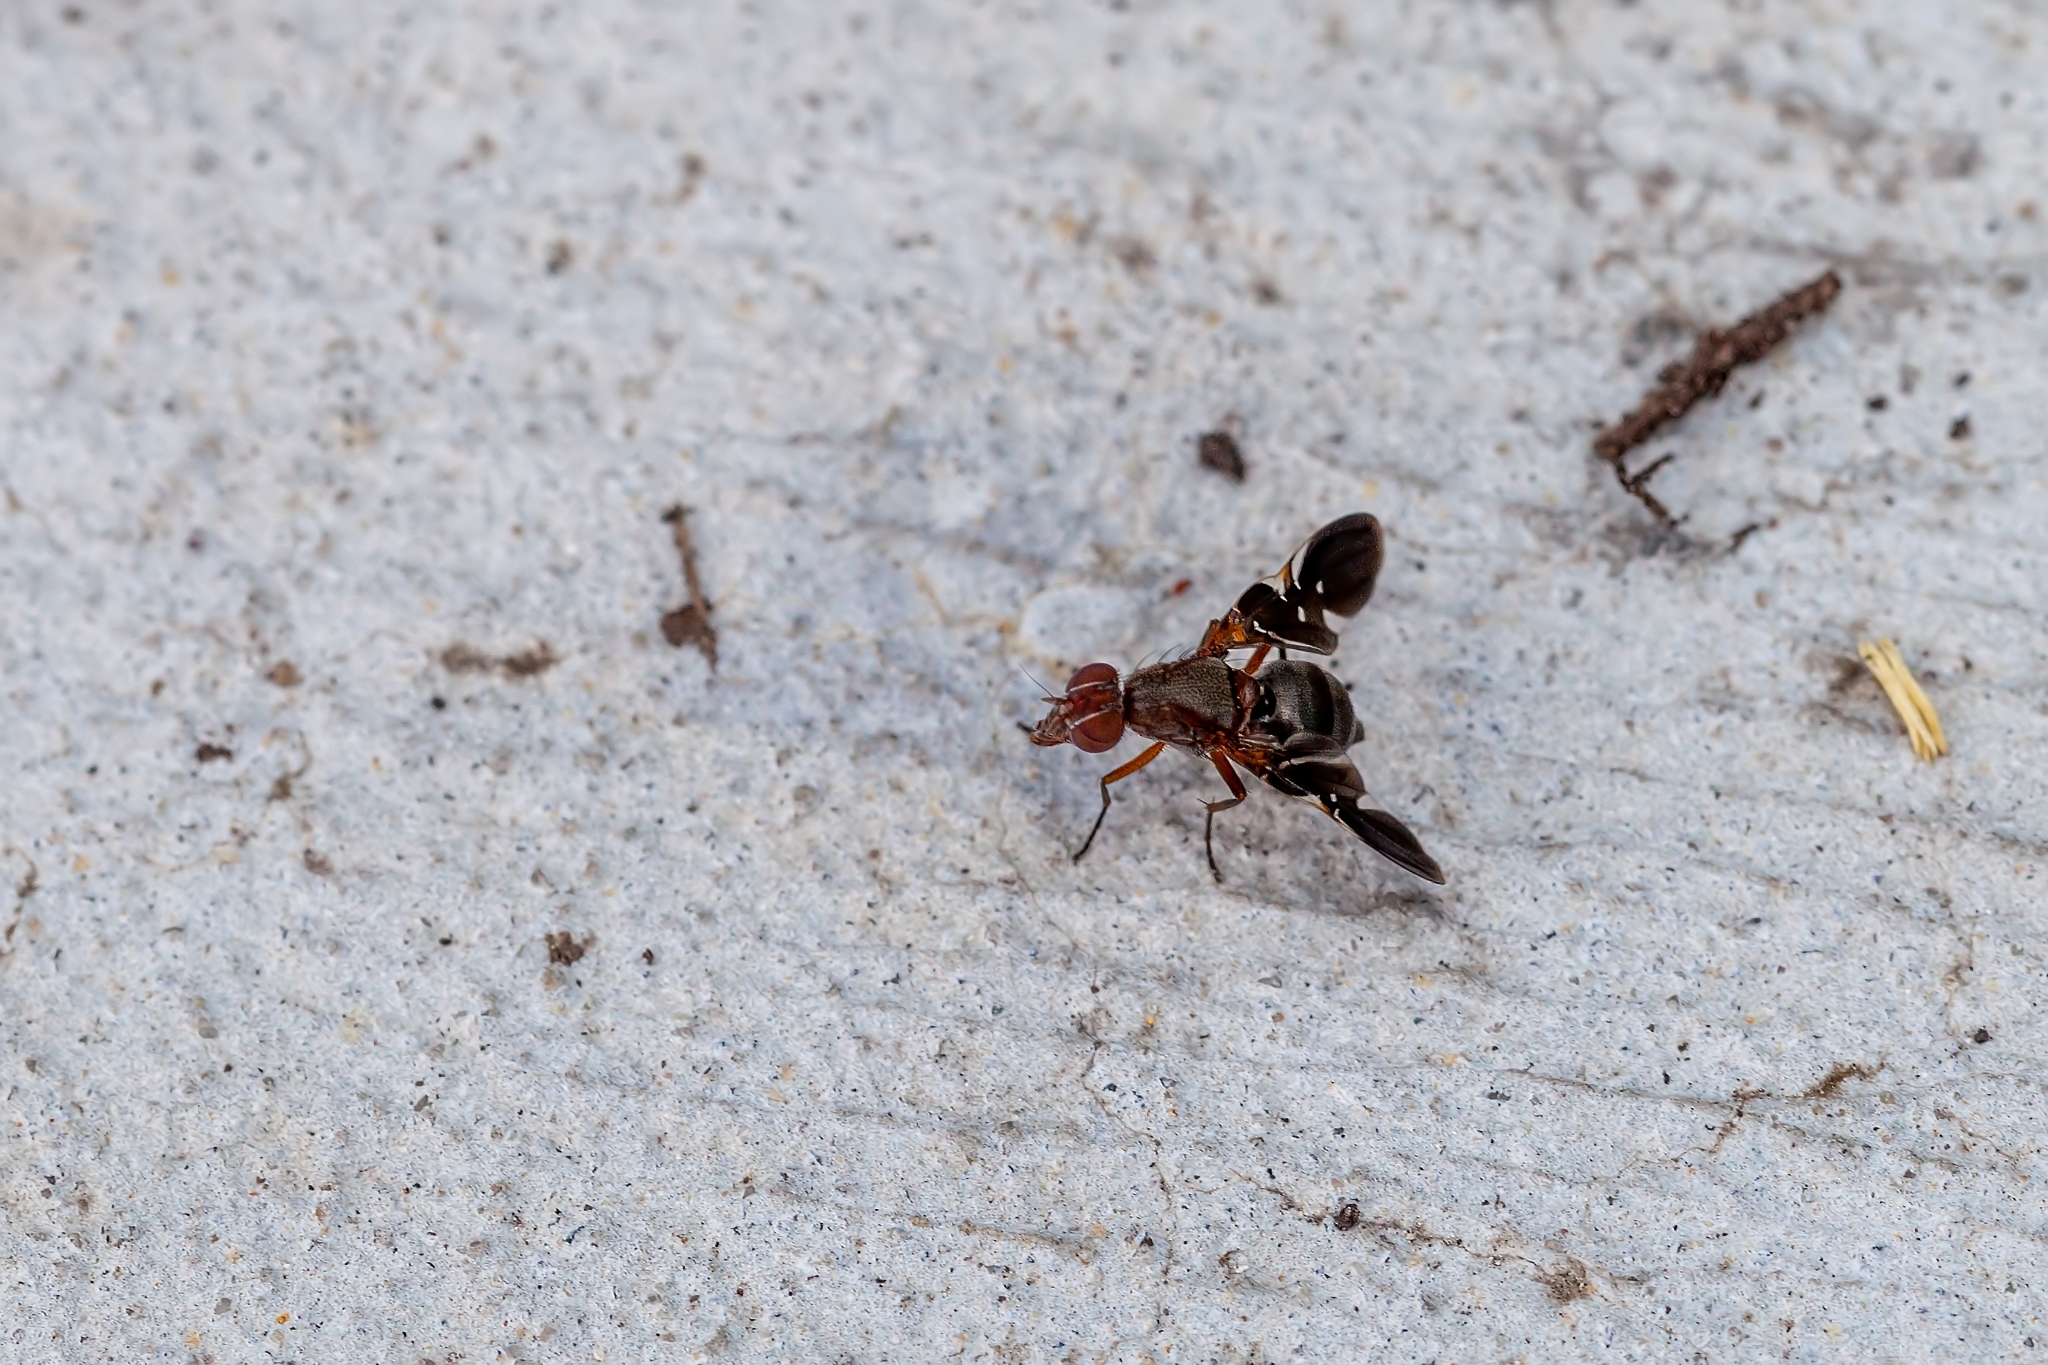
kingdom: Animalia
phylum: Arthropoda
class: Insecta
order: Diptera
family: Ulidiidae
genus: Delphinia
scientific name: Delphinia picta
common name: Common picture-winged fly
